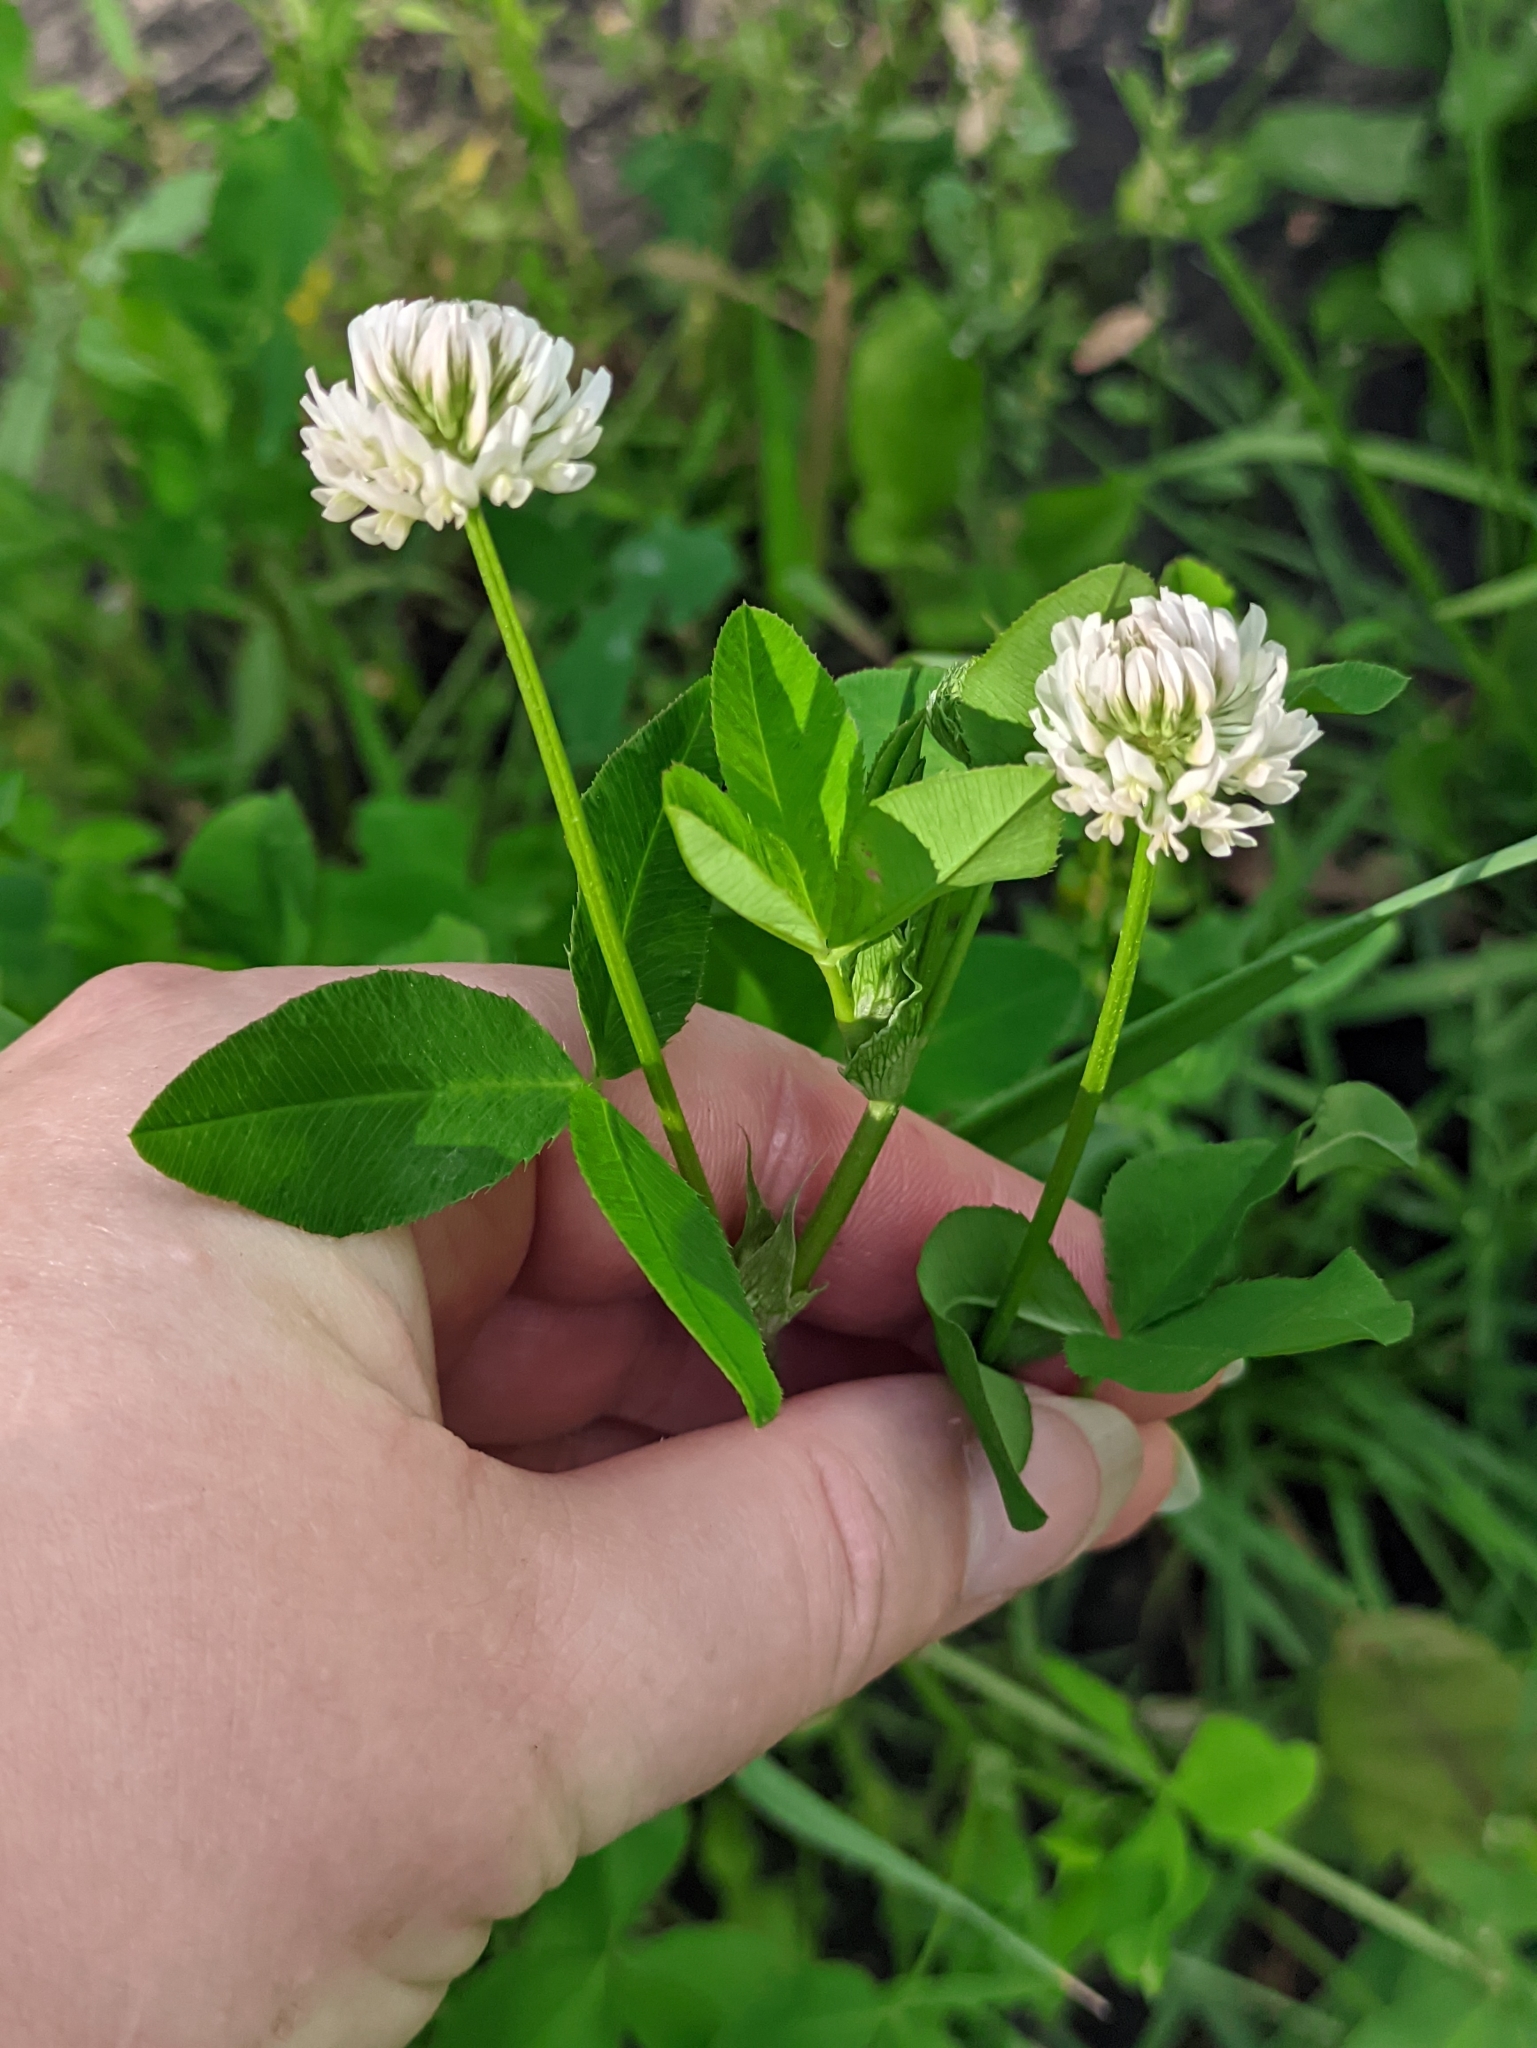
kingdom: Plantae
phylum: Tracheophyta
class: Magnoliopsida
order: Fabales
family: Fabaceae
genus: Trifolium
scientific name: Trifolium hybridum
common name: Alsike clover
